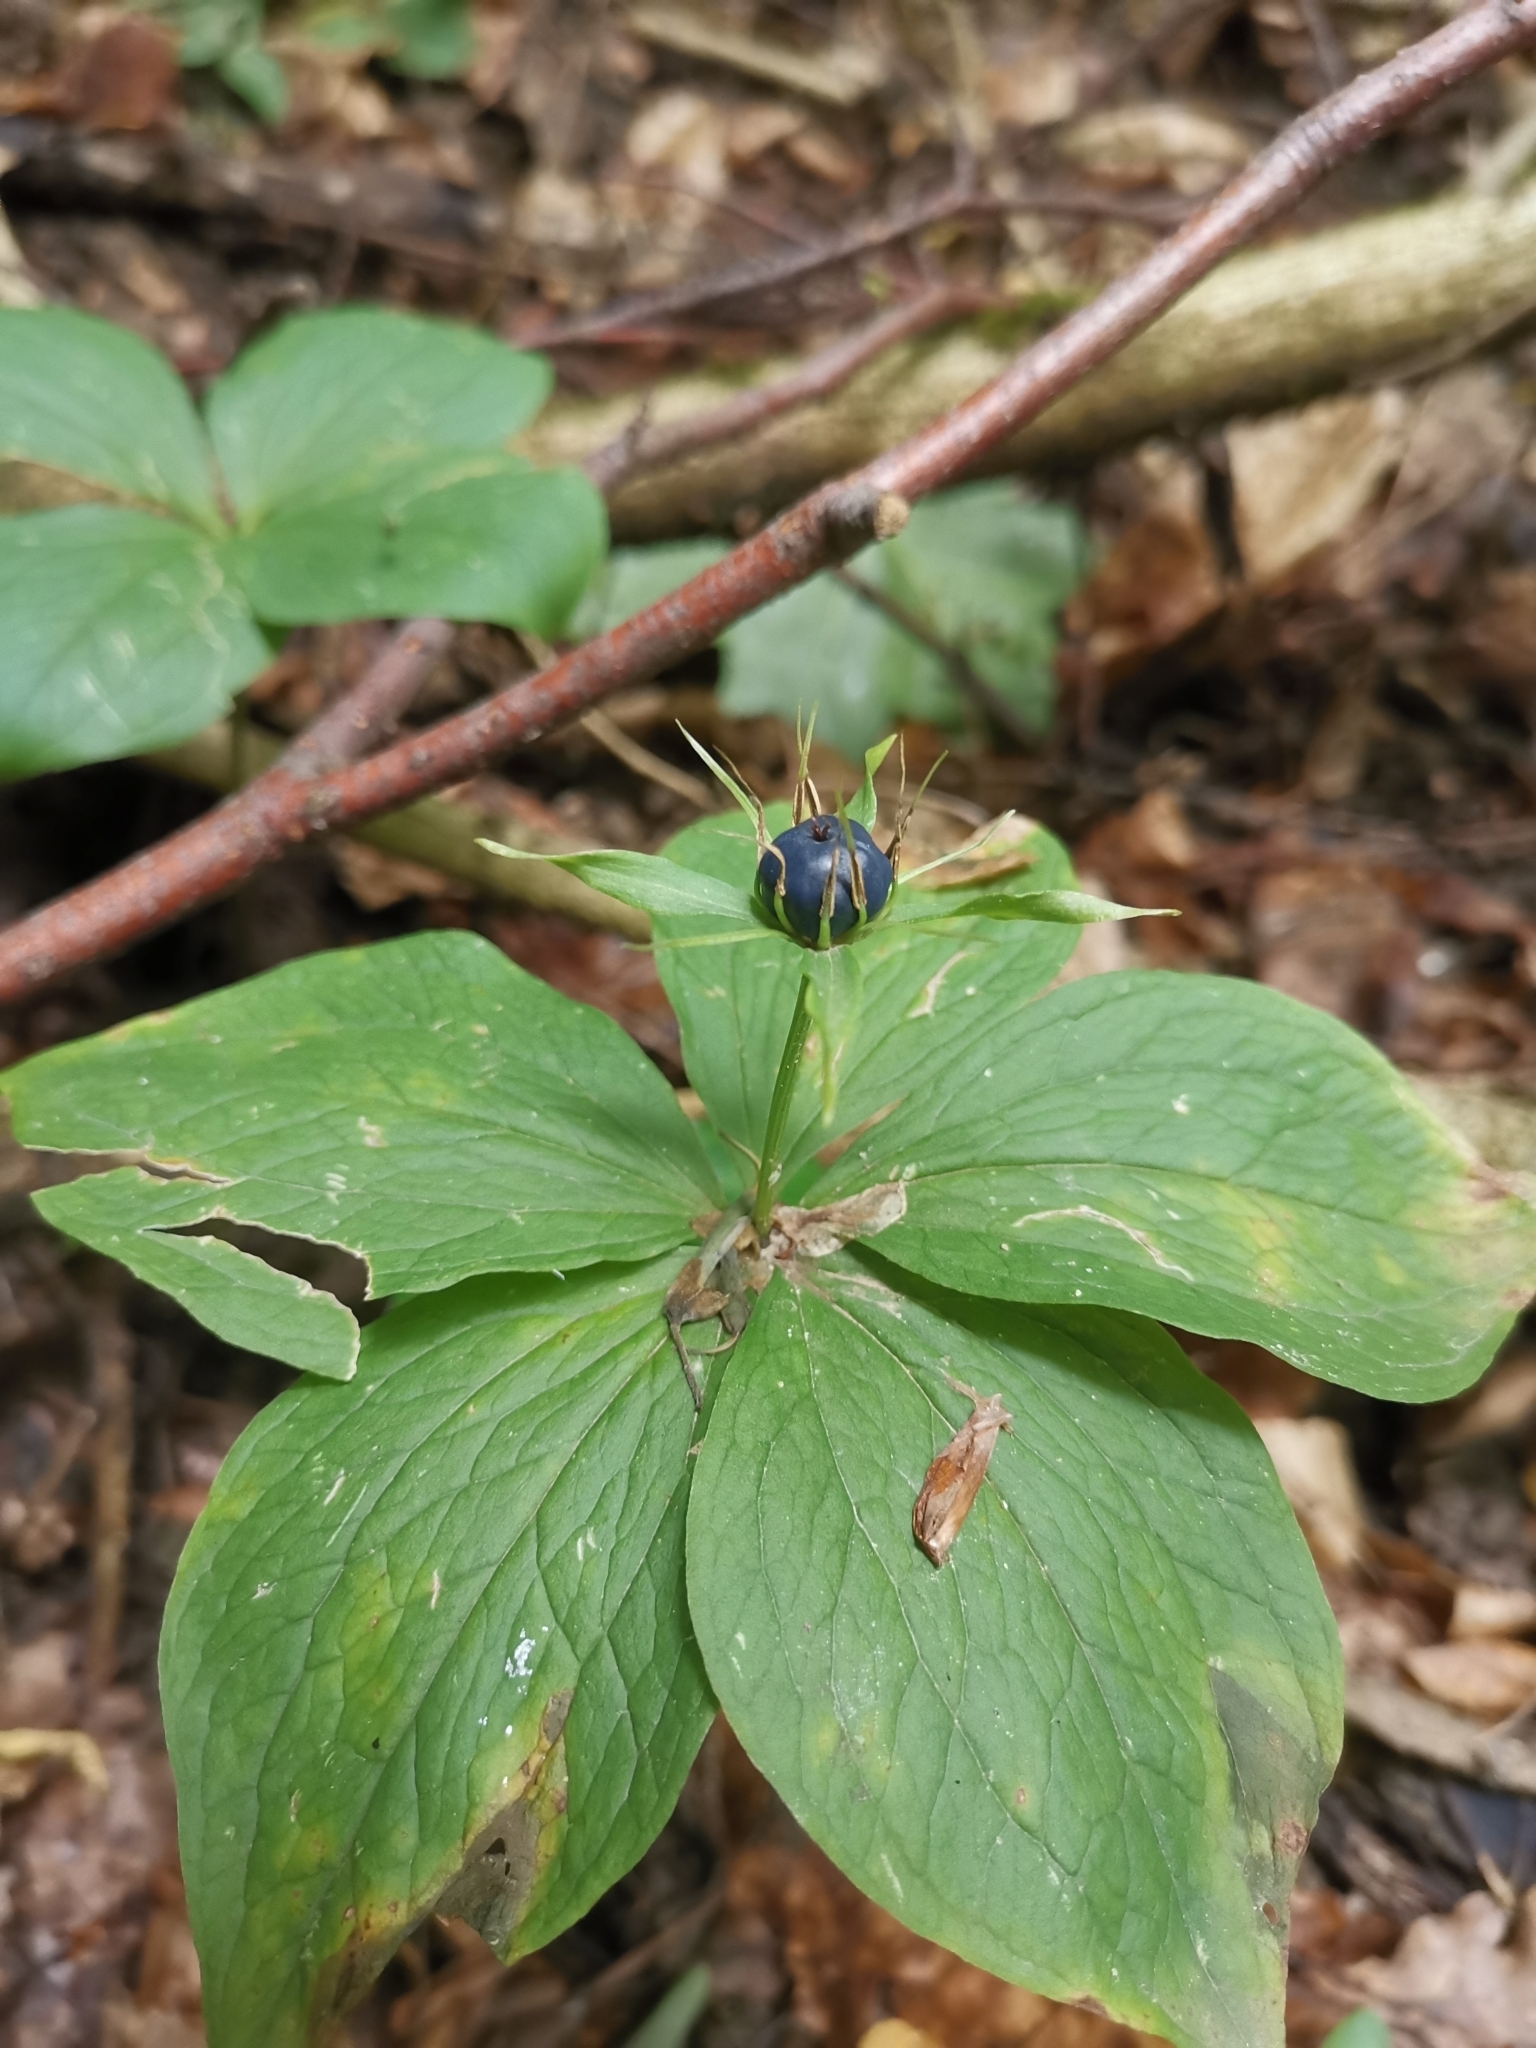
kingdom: Plantae
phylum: Tracheophyta
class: Liliopsida
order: Liliales
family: Melanthiaceae
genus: Paris
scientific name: Paris quadrifolia
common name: Herb-paris
